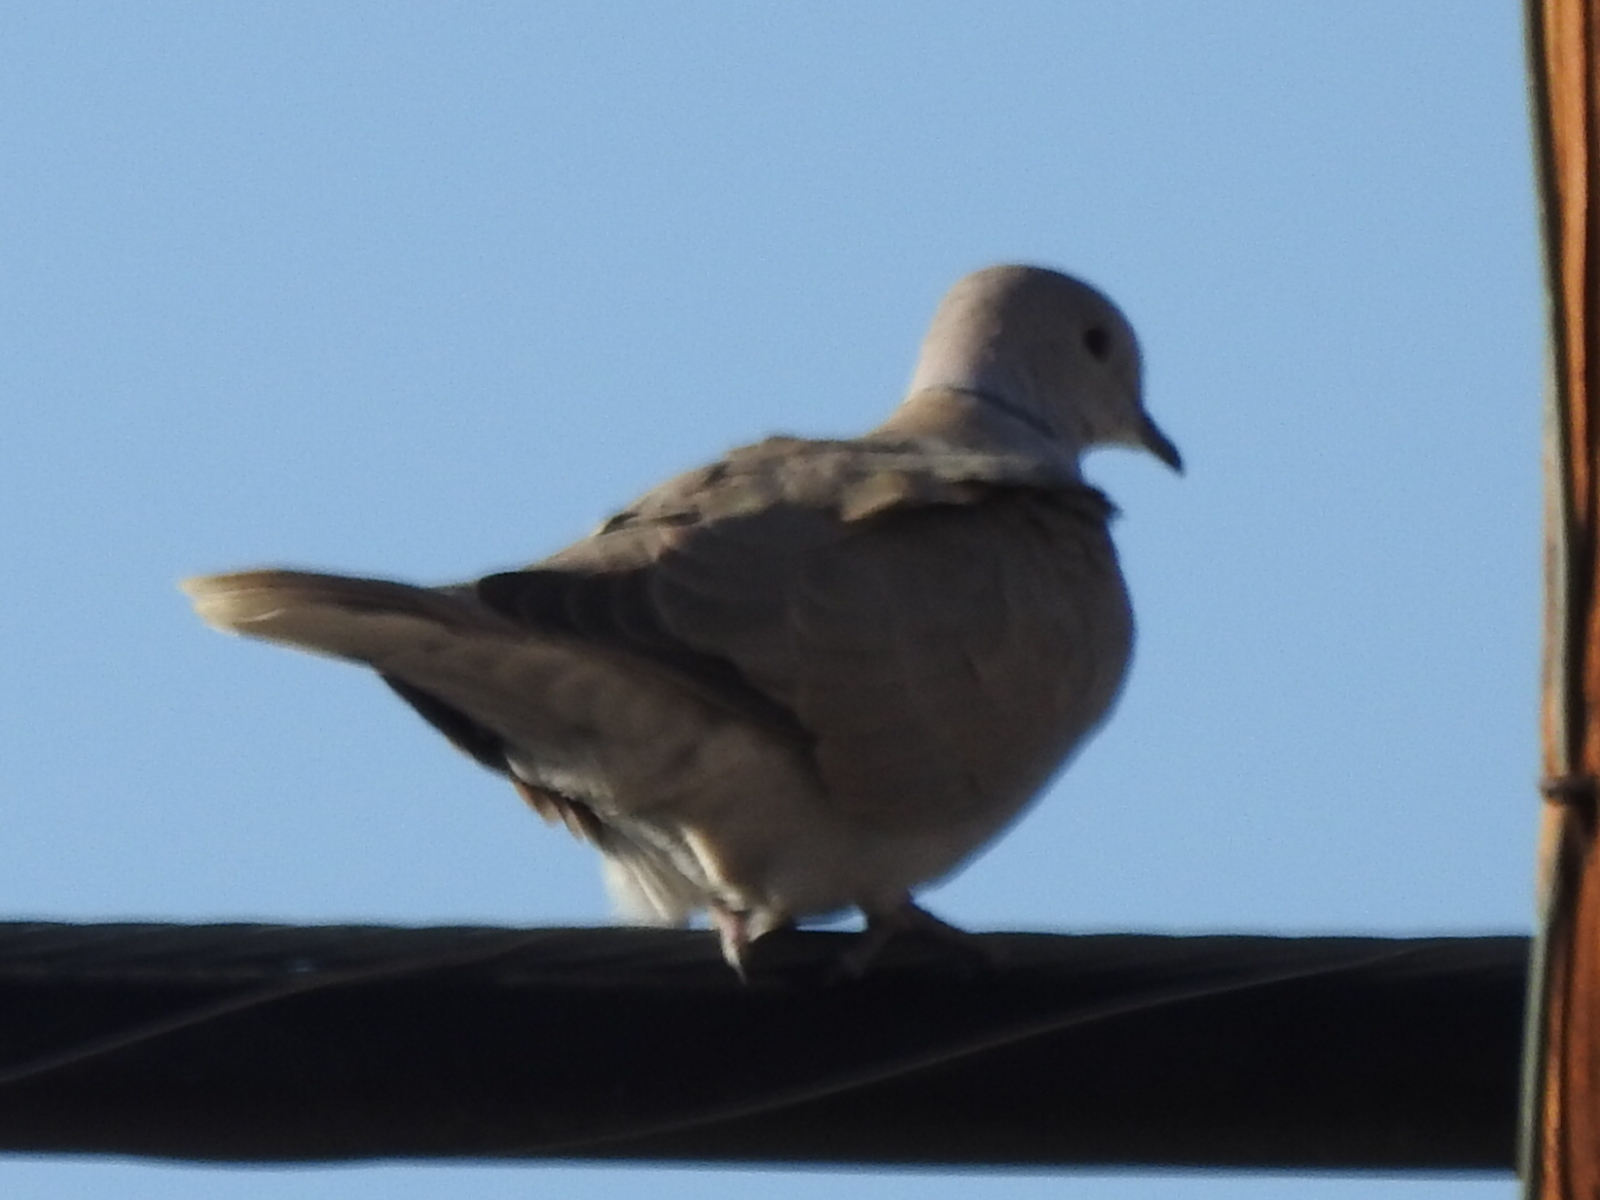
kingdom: Animalia
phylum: Chordata
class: Aves
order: Columbiformes
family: Columbidae
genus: Streptopelia
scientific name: Streptopelia decaocto
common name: Eurasian collared dove
